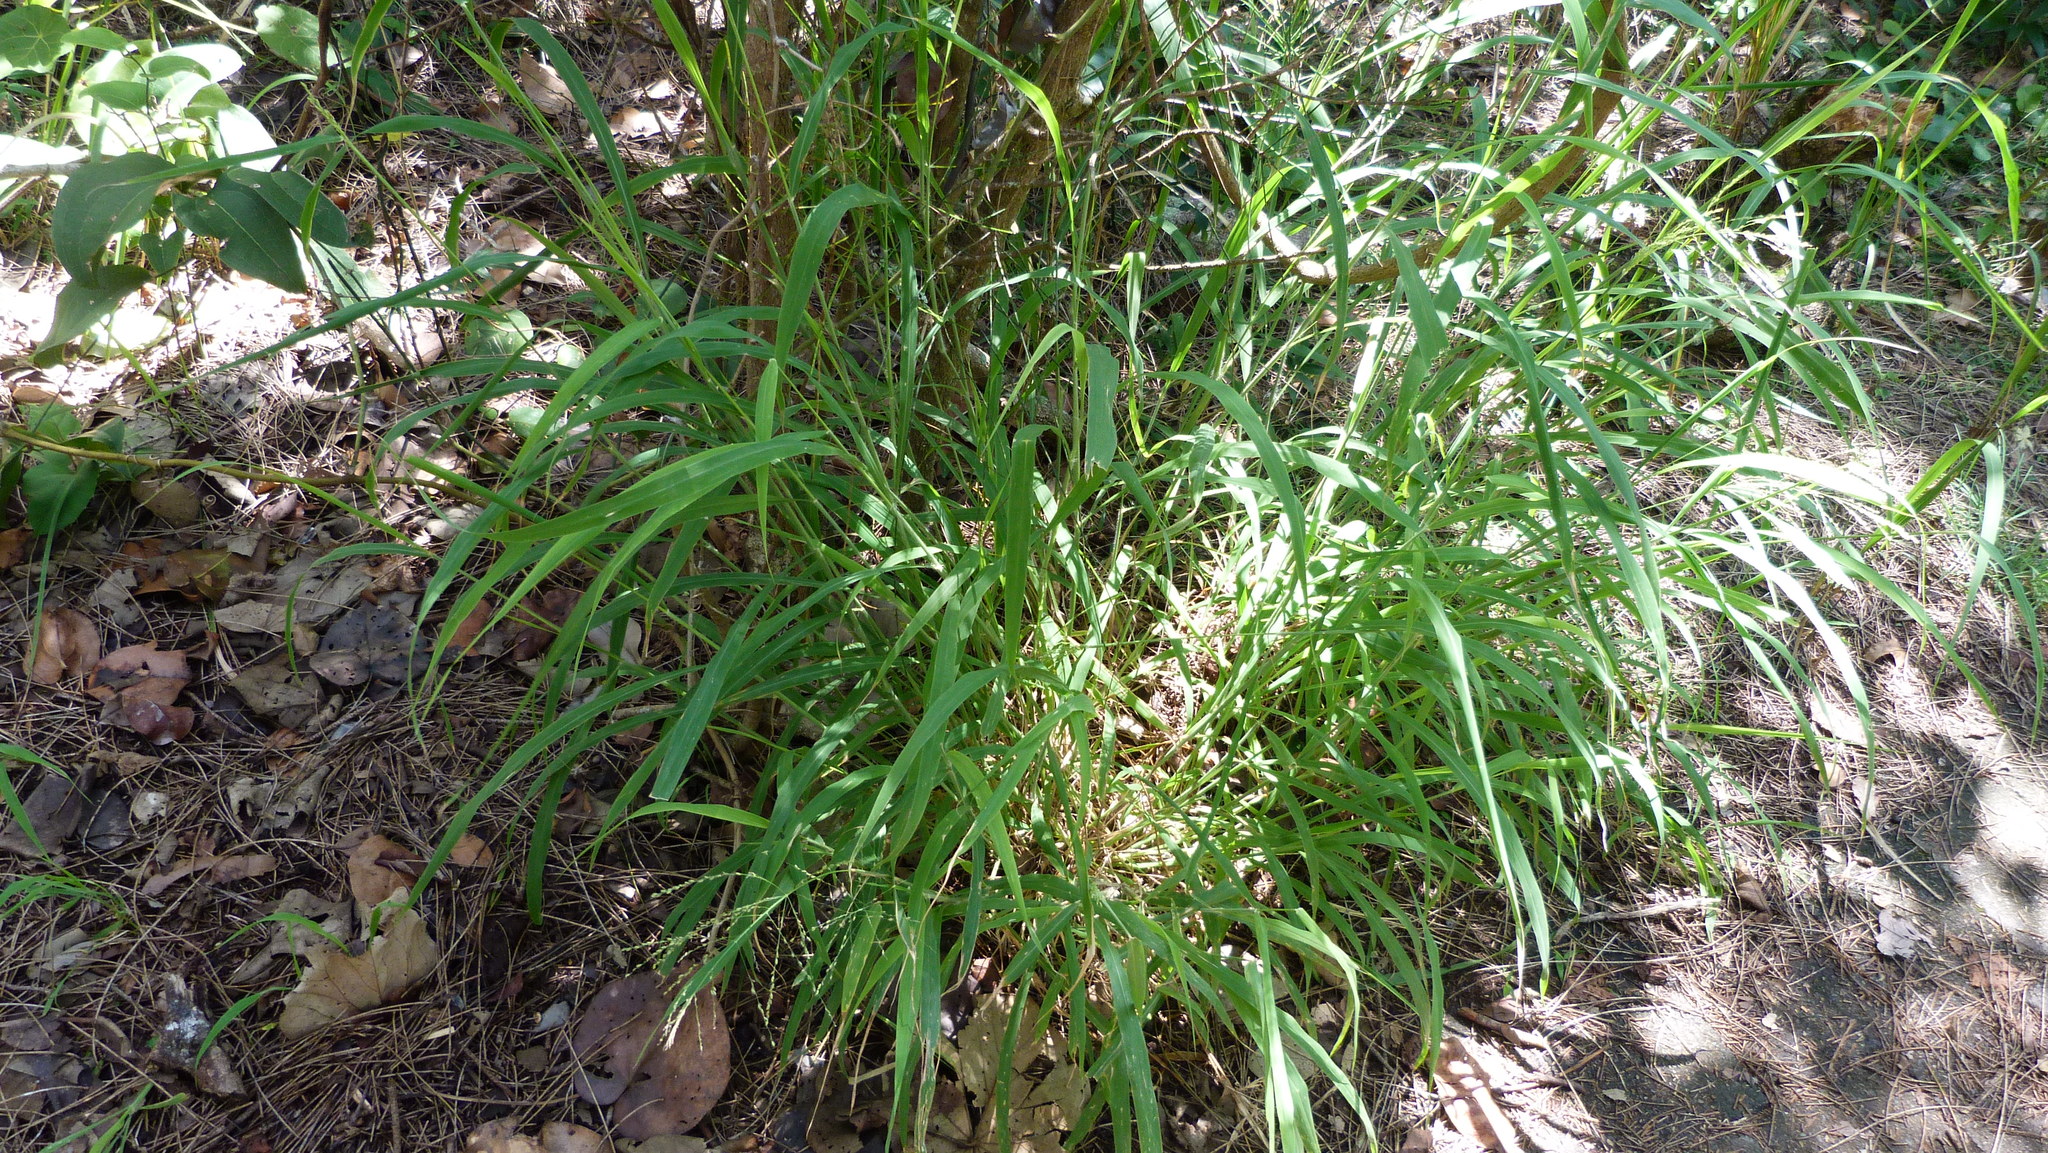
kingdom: Plantae
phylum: Tracheophyta
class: Liliopsida
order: Poales
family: Poaceae
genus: Ehrharta
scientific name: Ehrharta erecta
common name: Panic veldtgrass
